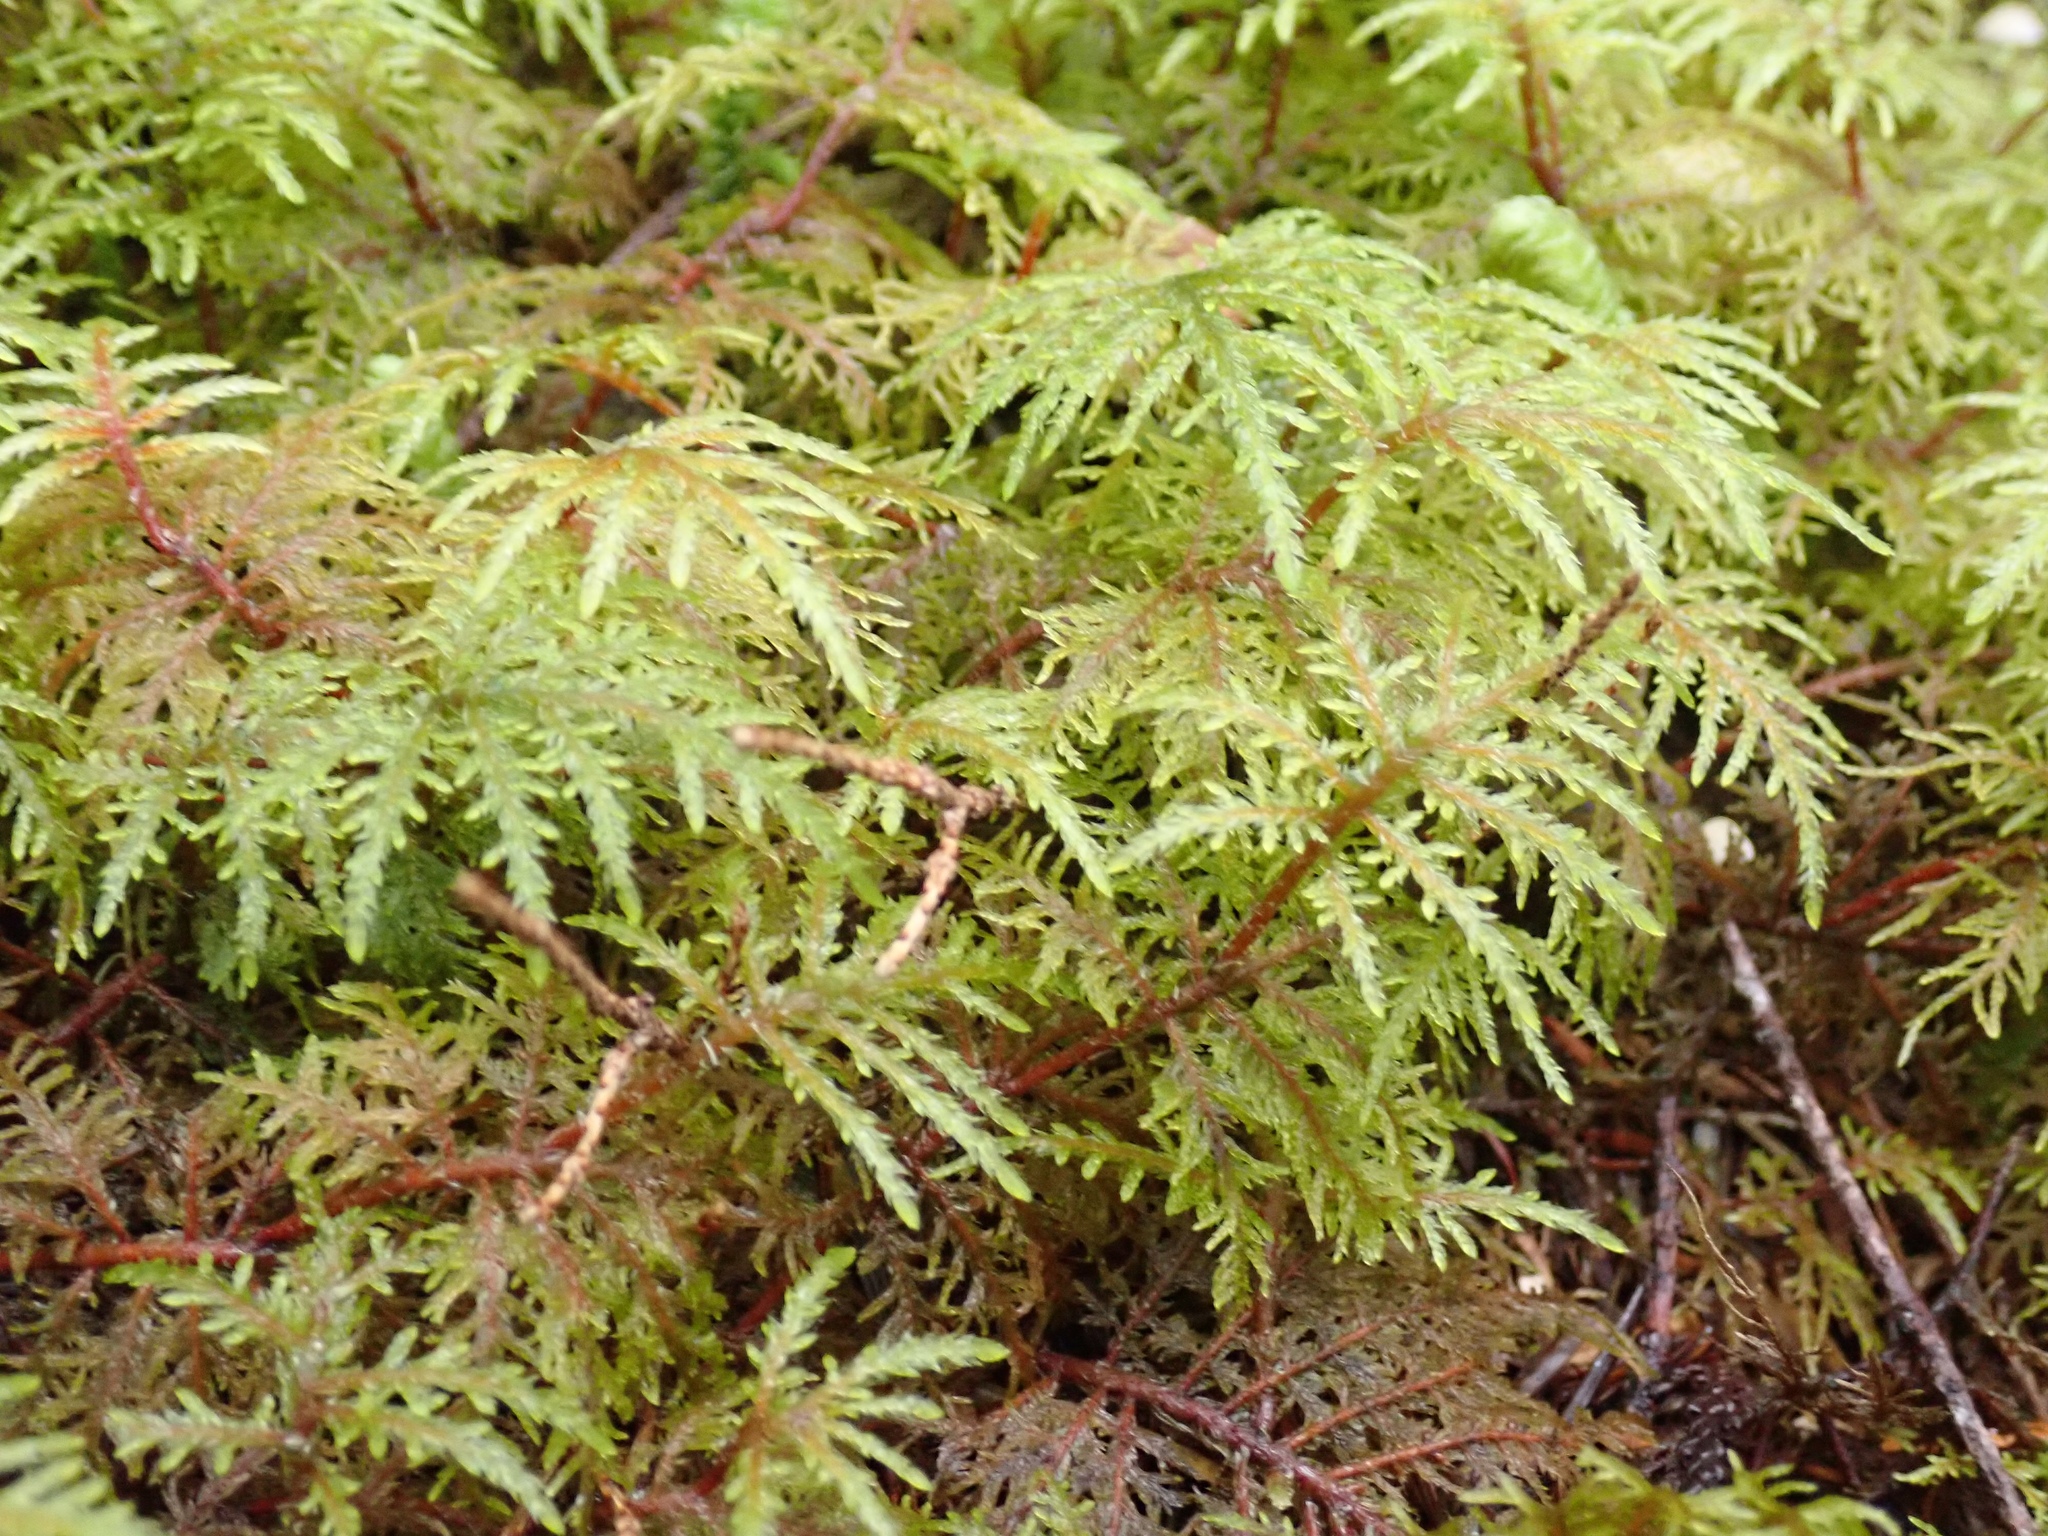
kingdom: Plantae
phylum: Bryophyta
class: Bryopsida
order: Hypnales
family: Hylocomiaceae
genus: Hylocomium
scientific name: Hylocomium splendens
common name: Stairstep moss
